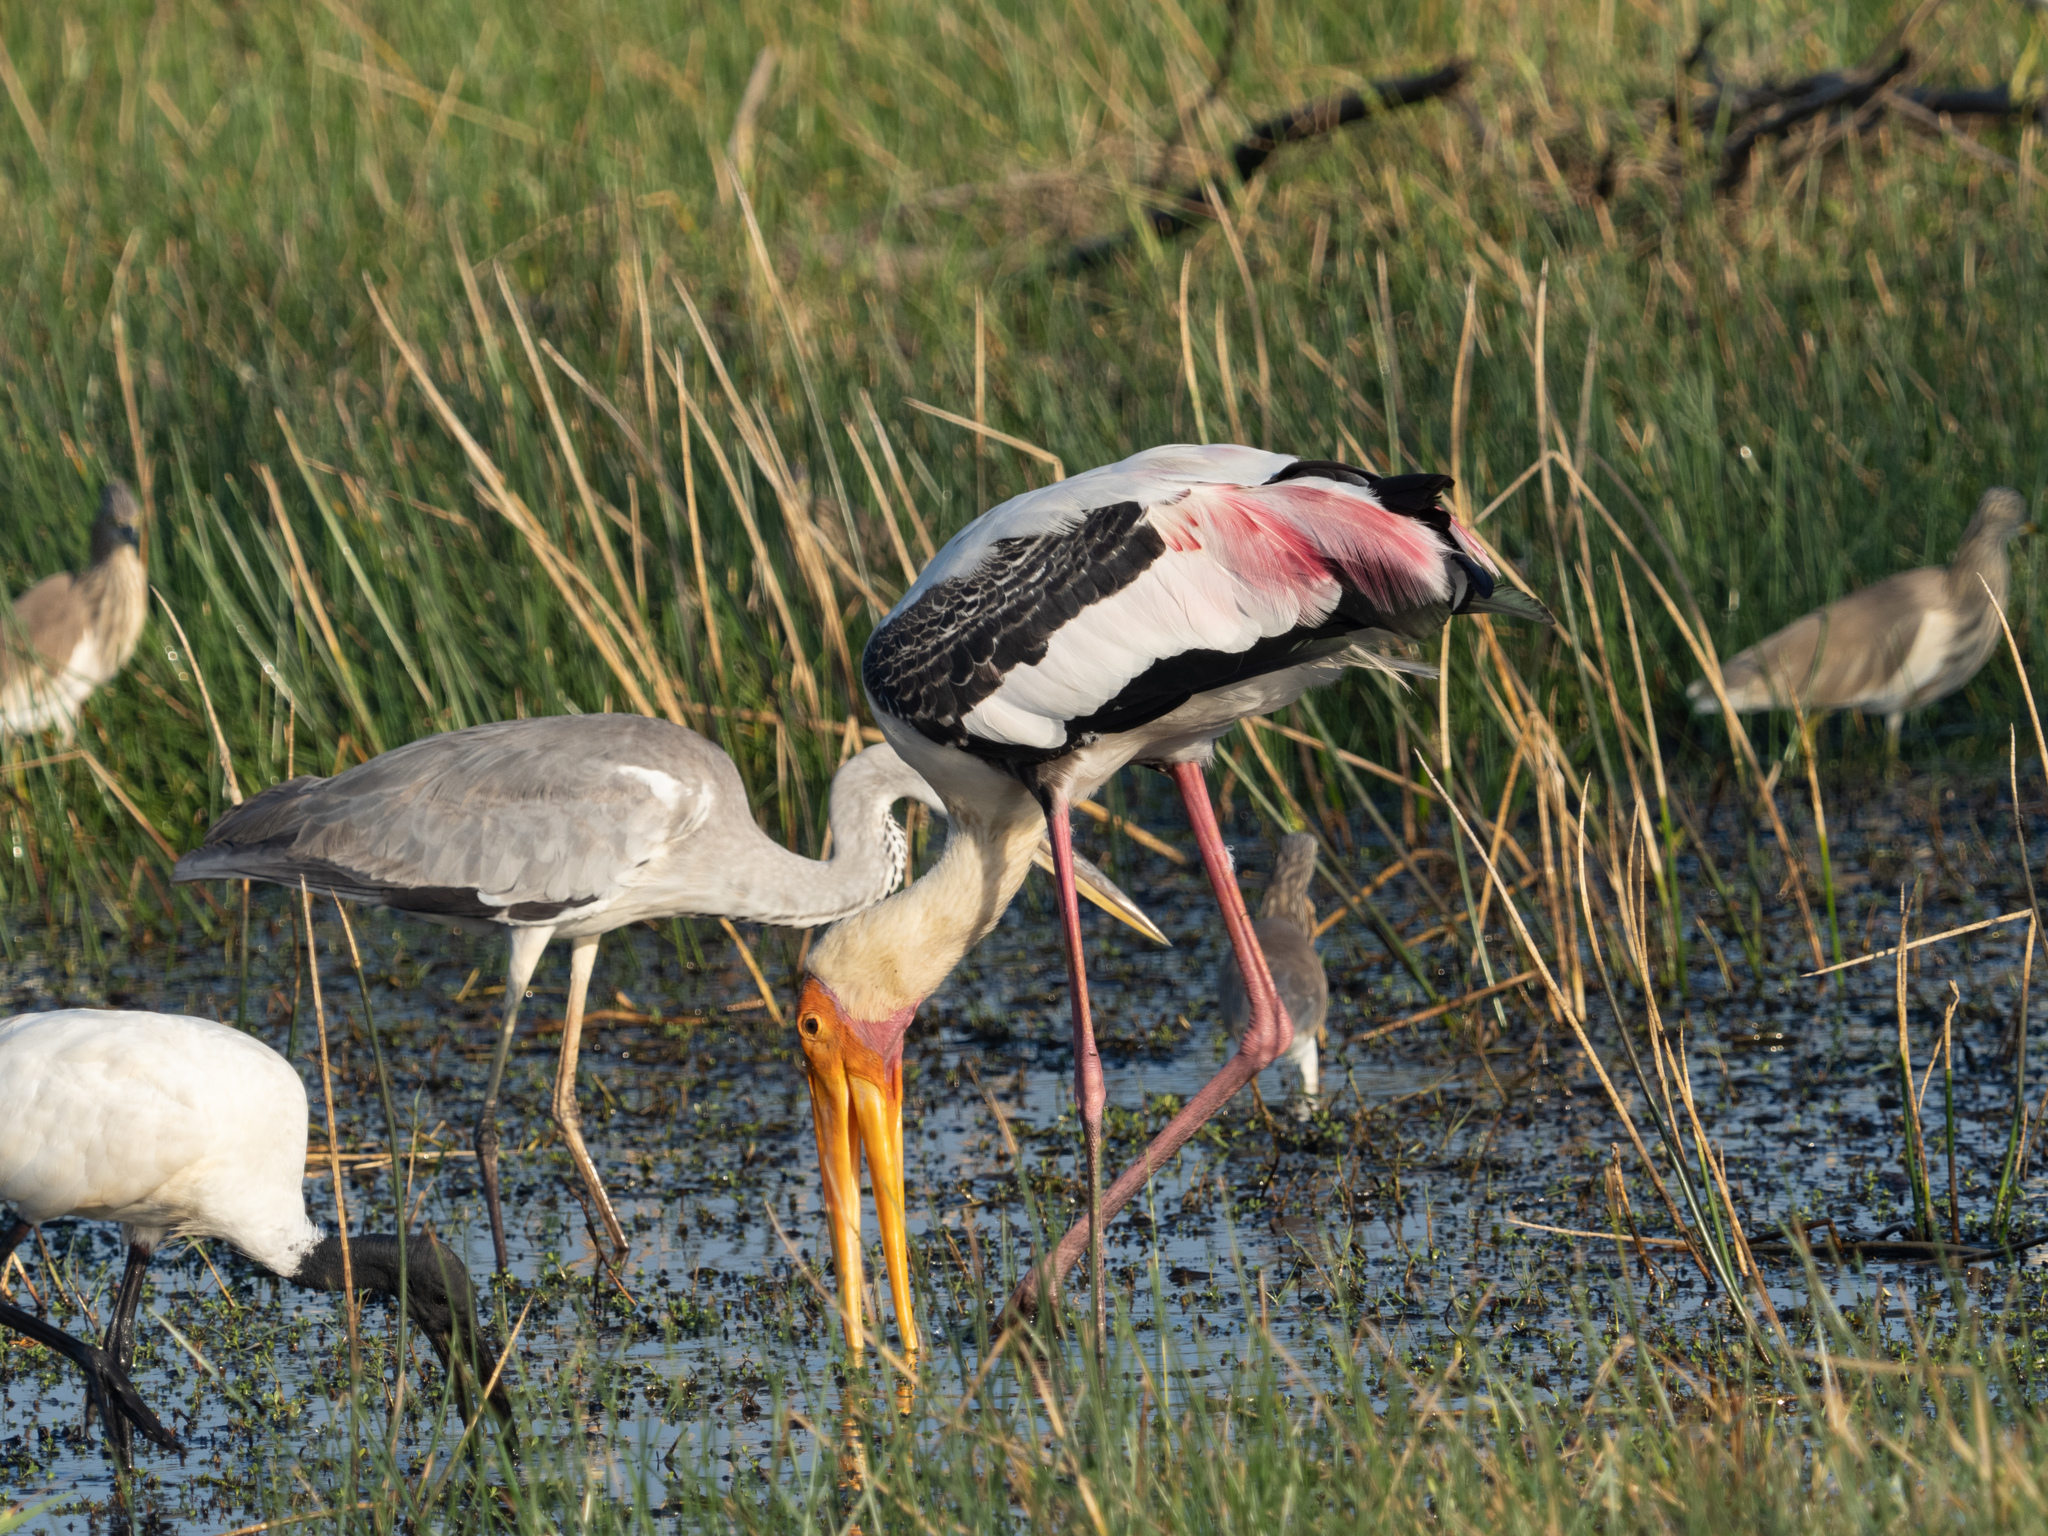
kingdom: Animalia
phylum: Chordata
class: Aves
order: Ciconiiformes
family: Ciconiidae
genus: Mycteria
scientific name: Mycteria leucocephala
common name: Painted stork
